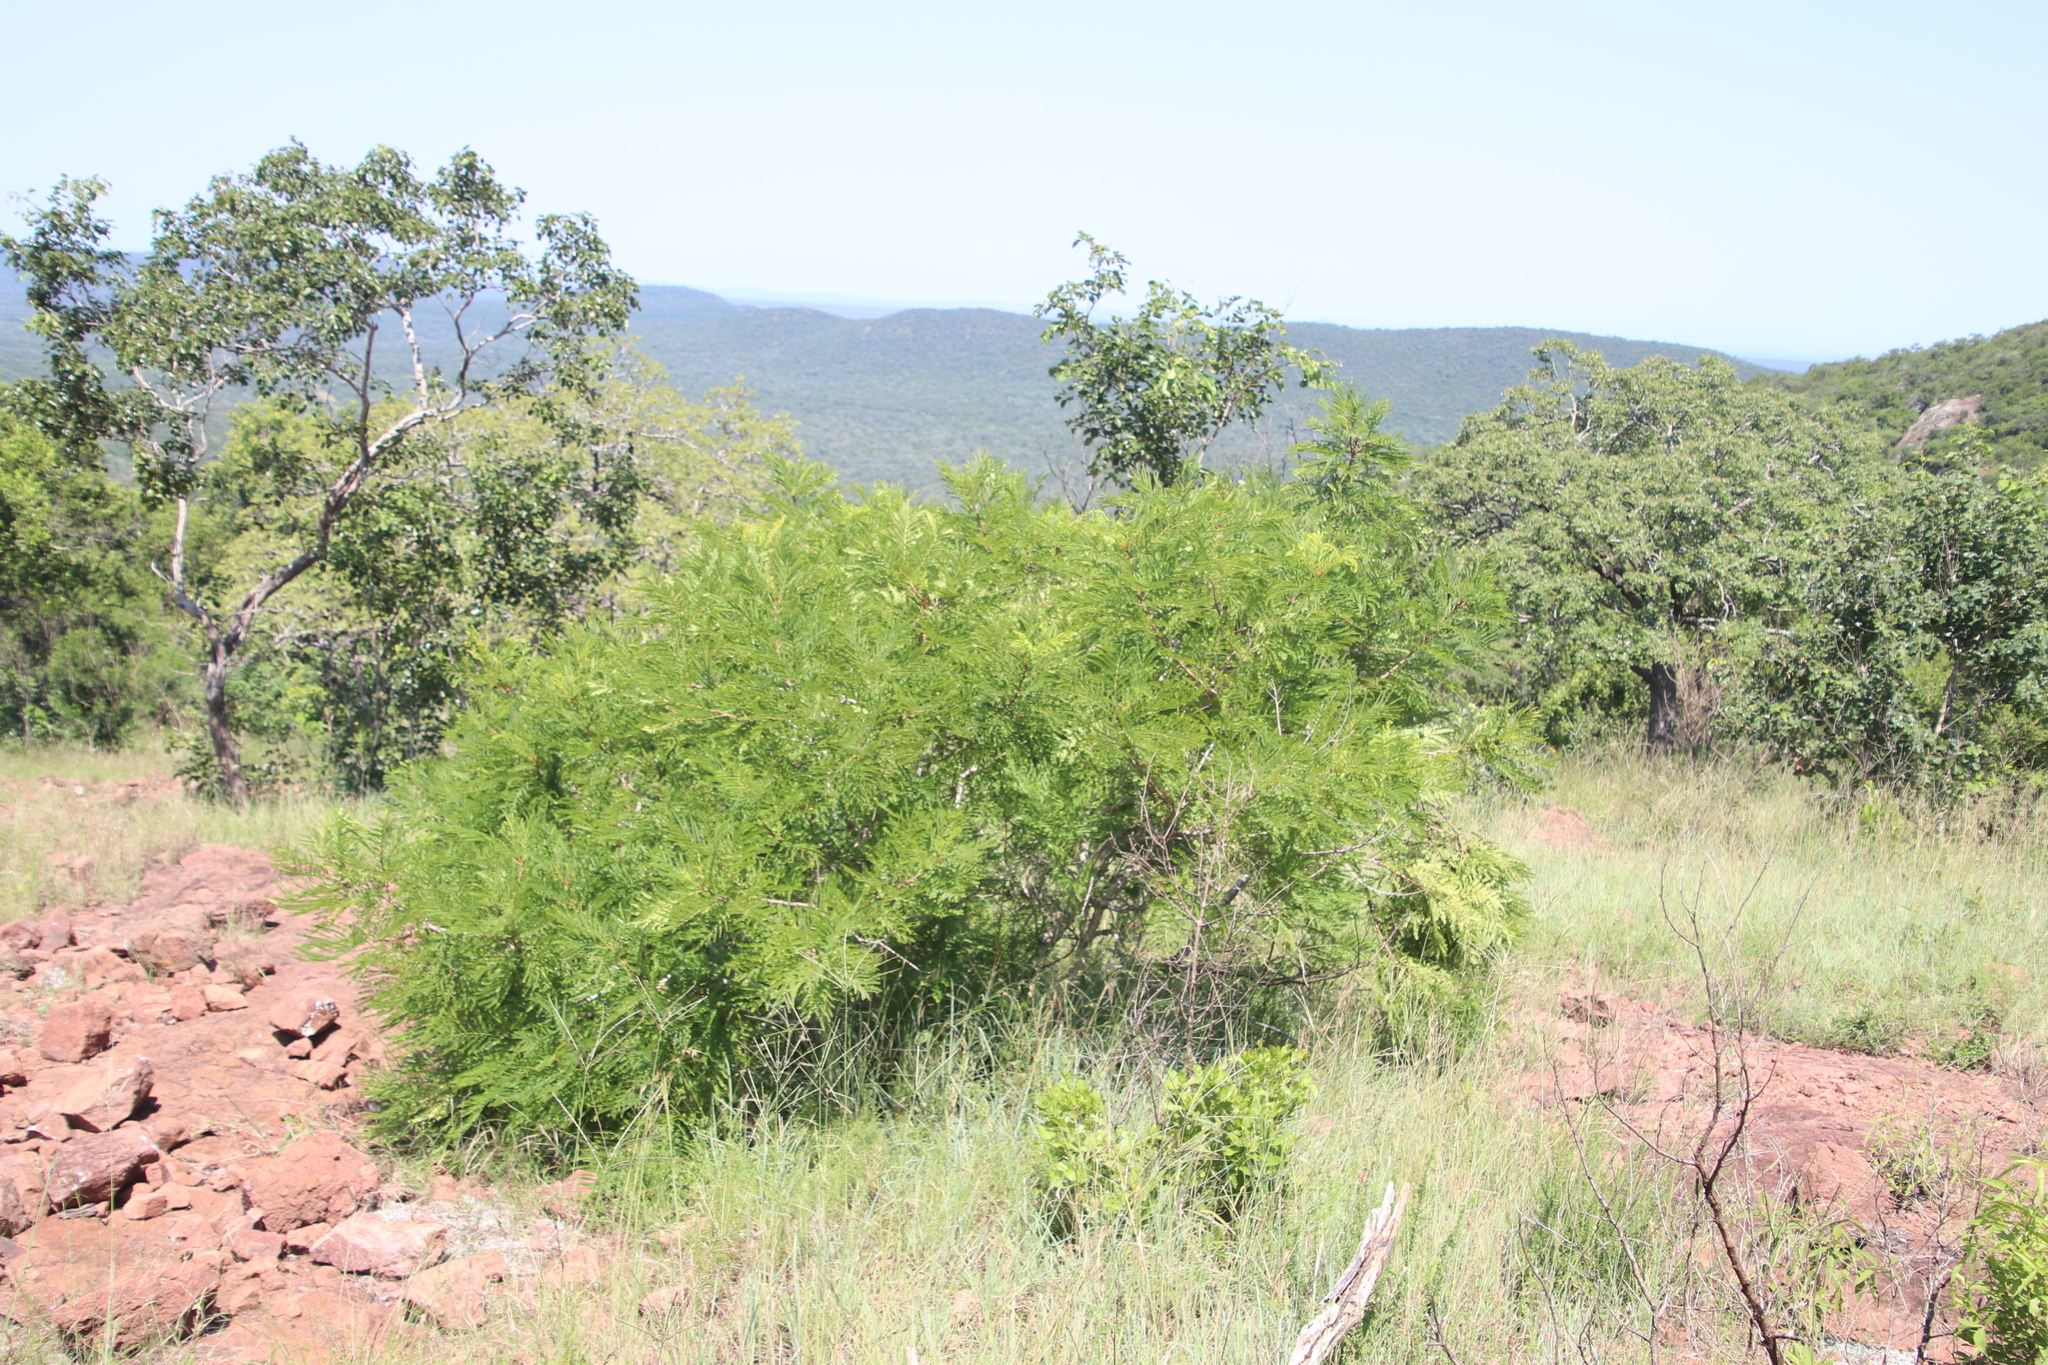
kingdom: Plantae
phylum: Tracheophyta
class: Magnoliopsida
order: Fabales
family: Fabaceae
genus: Peltophorum
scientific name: Peltophorum africanum
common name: African black wattle
